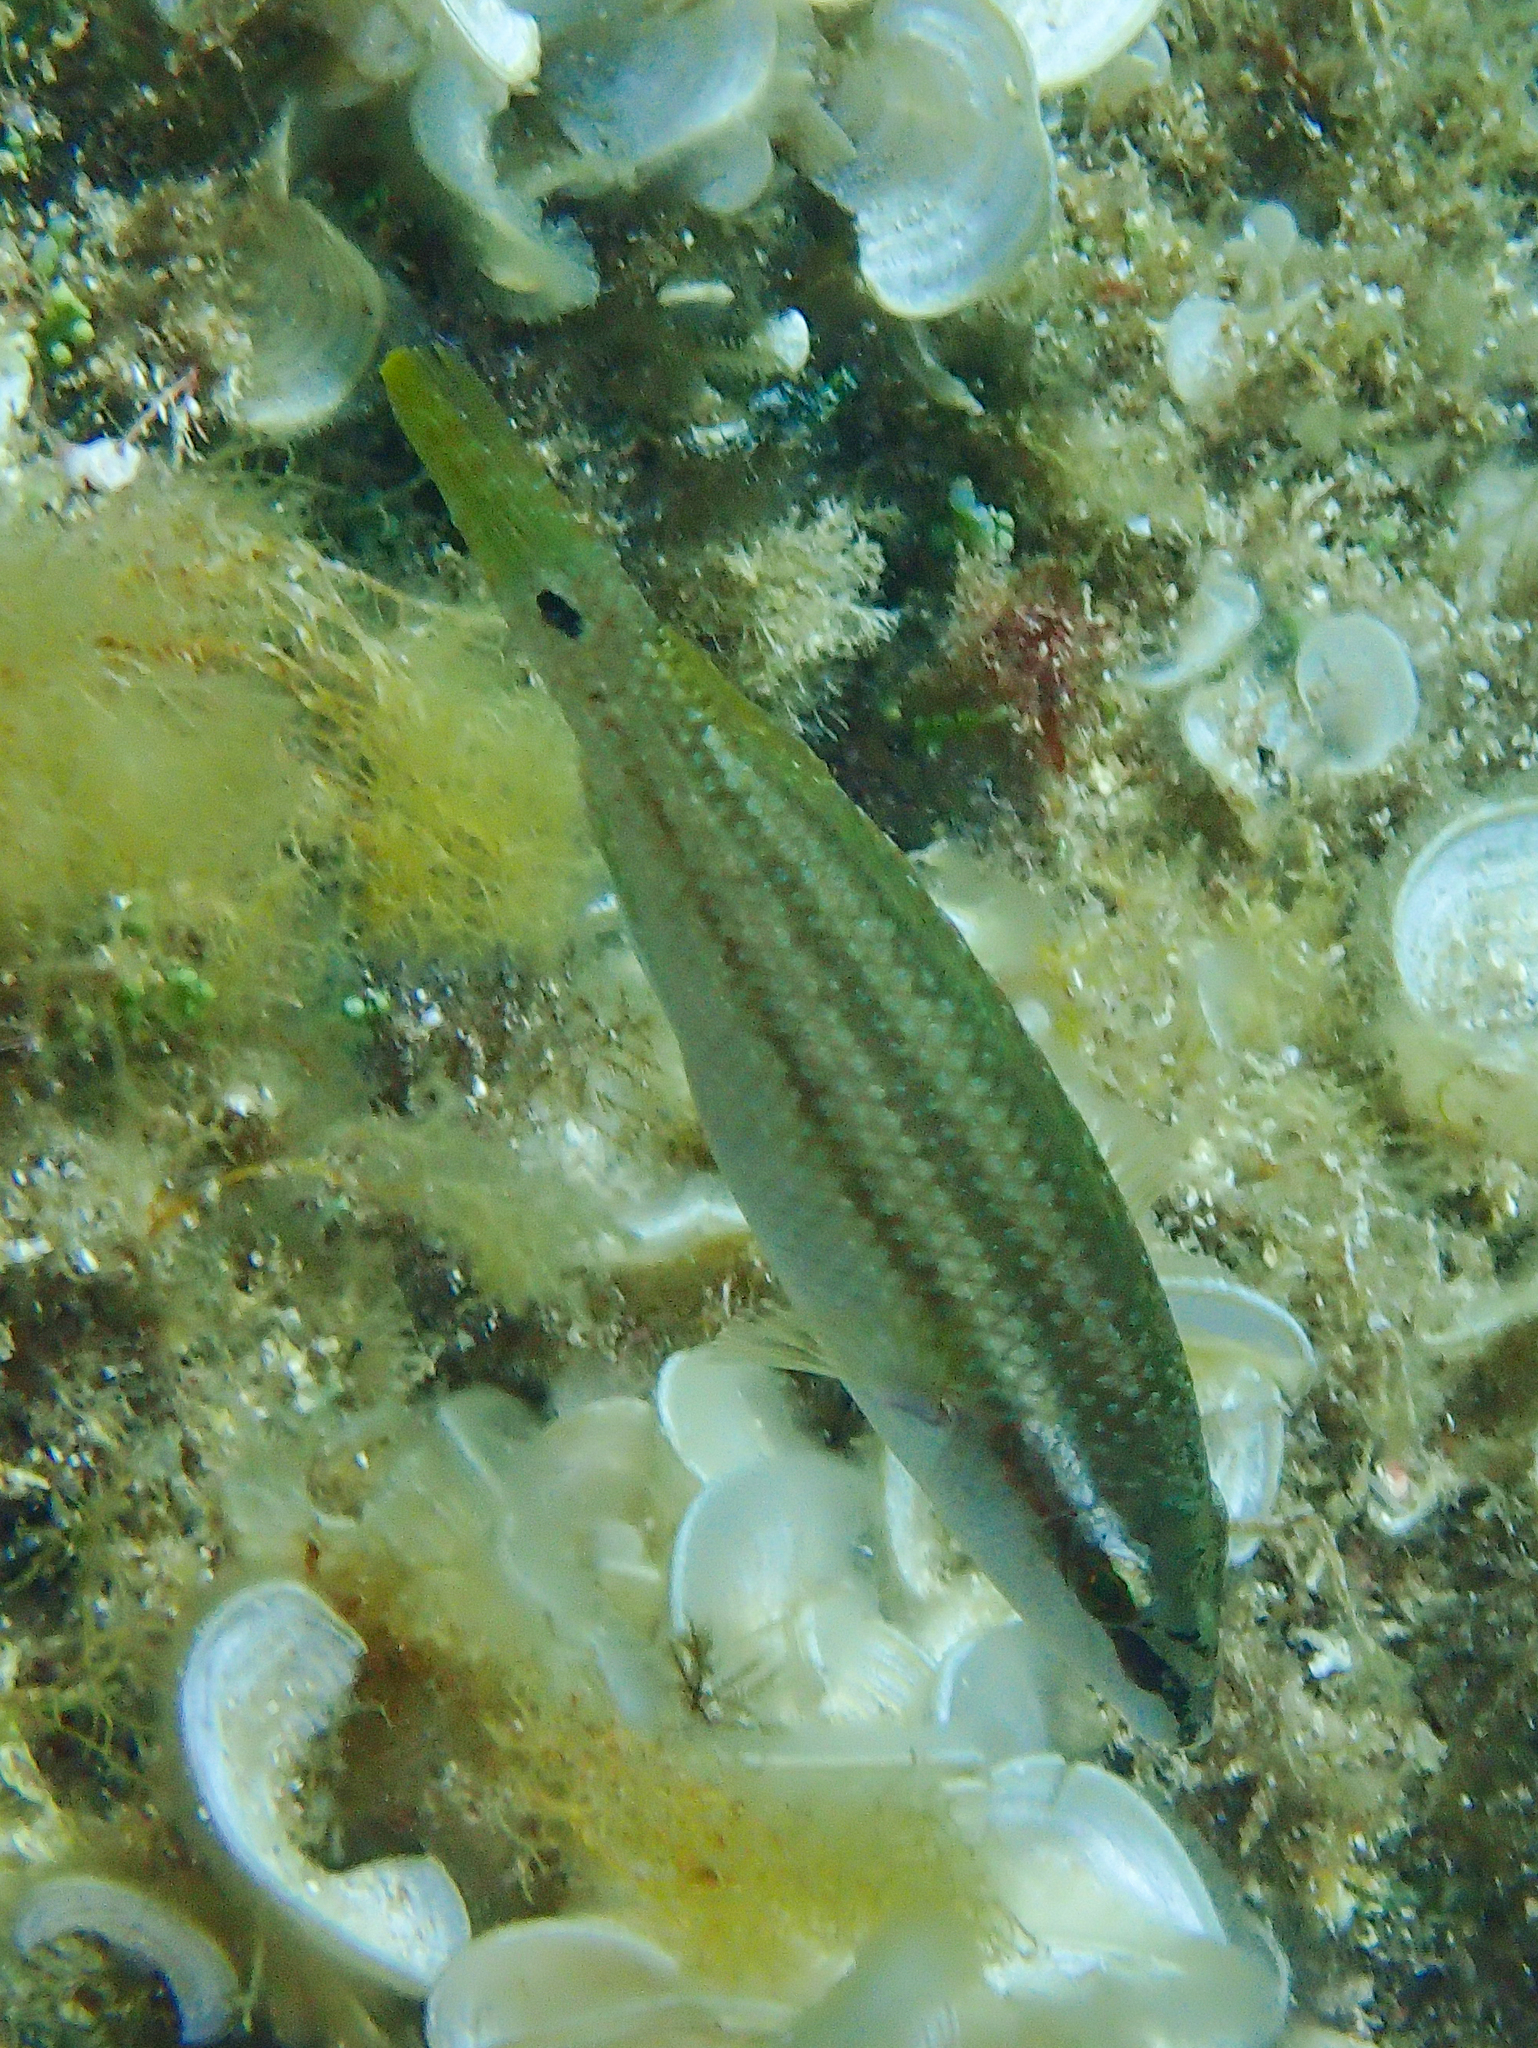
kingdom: Animalia
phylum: Chordata
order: Perciformes
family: Labridae
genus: Symphodus
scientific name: Symphodus tinca
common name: Peacock wrasse
